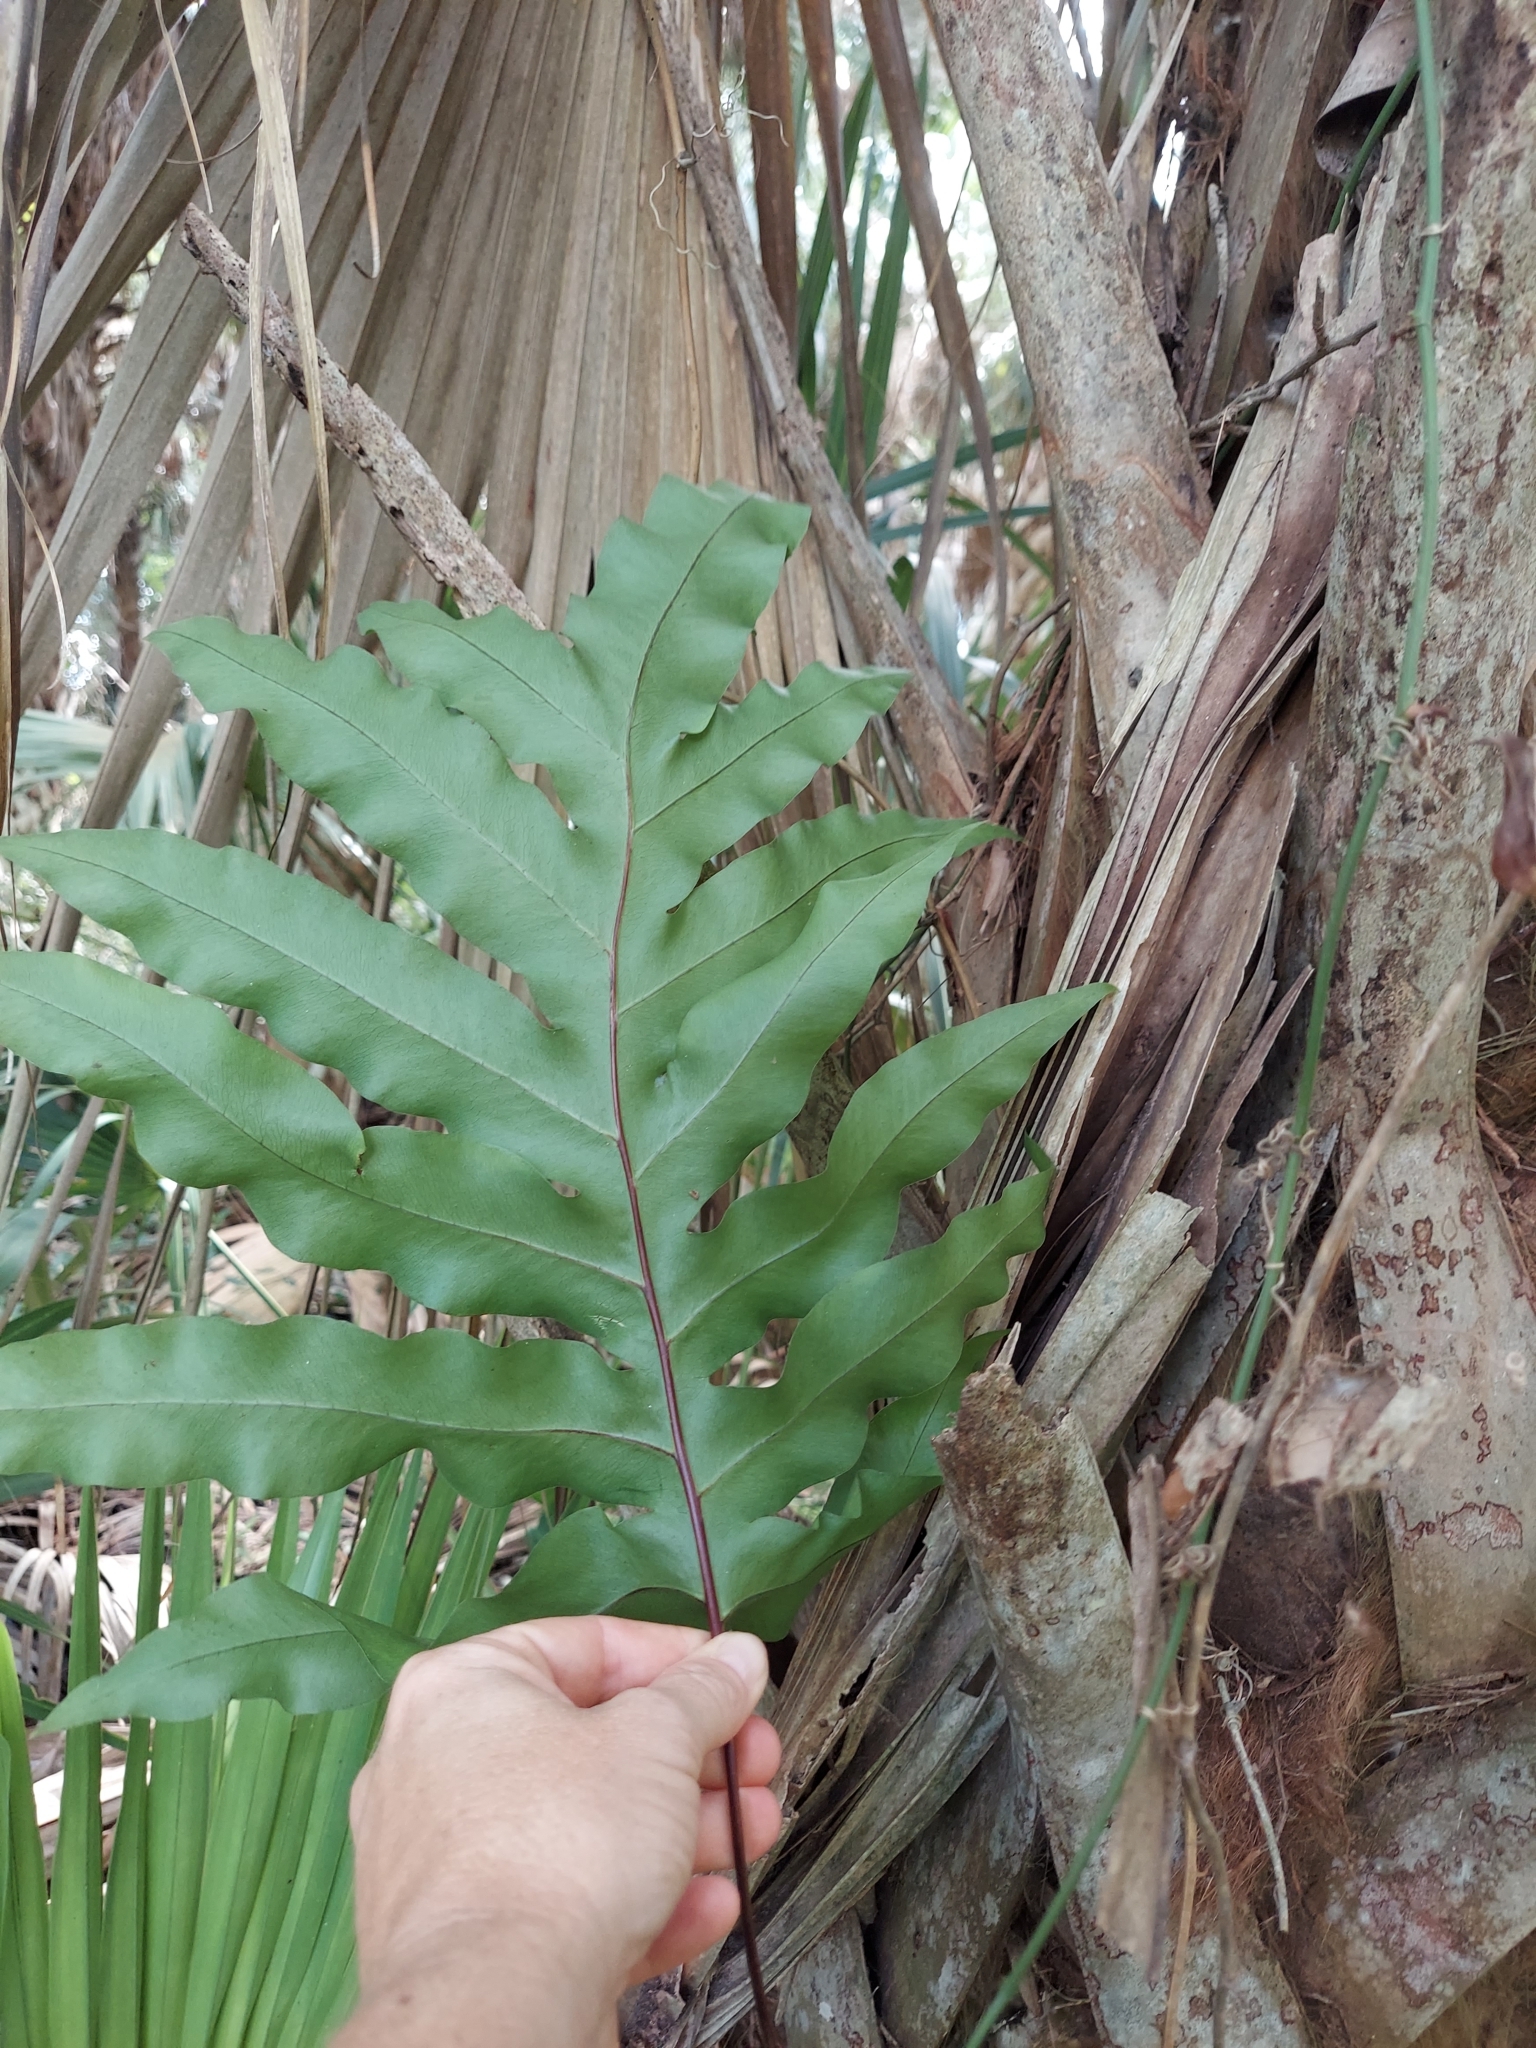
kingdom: Plantae
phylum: Tracheophyta
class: Polypodiopsida
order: Polypodiales
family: Polypodiaceae
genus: Phlebodium
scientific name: Phlebodium aureum
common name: Gold-foot fern
